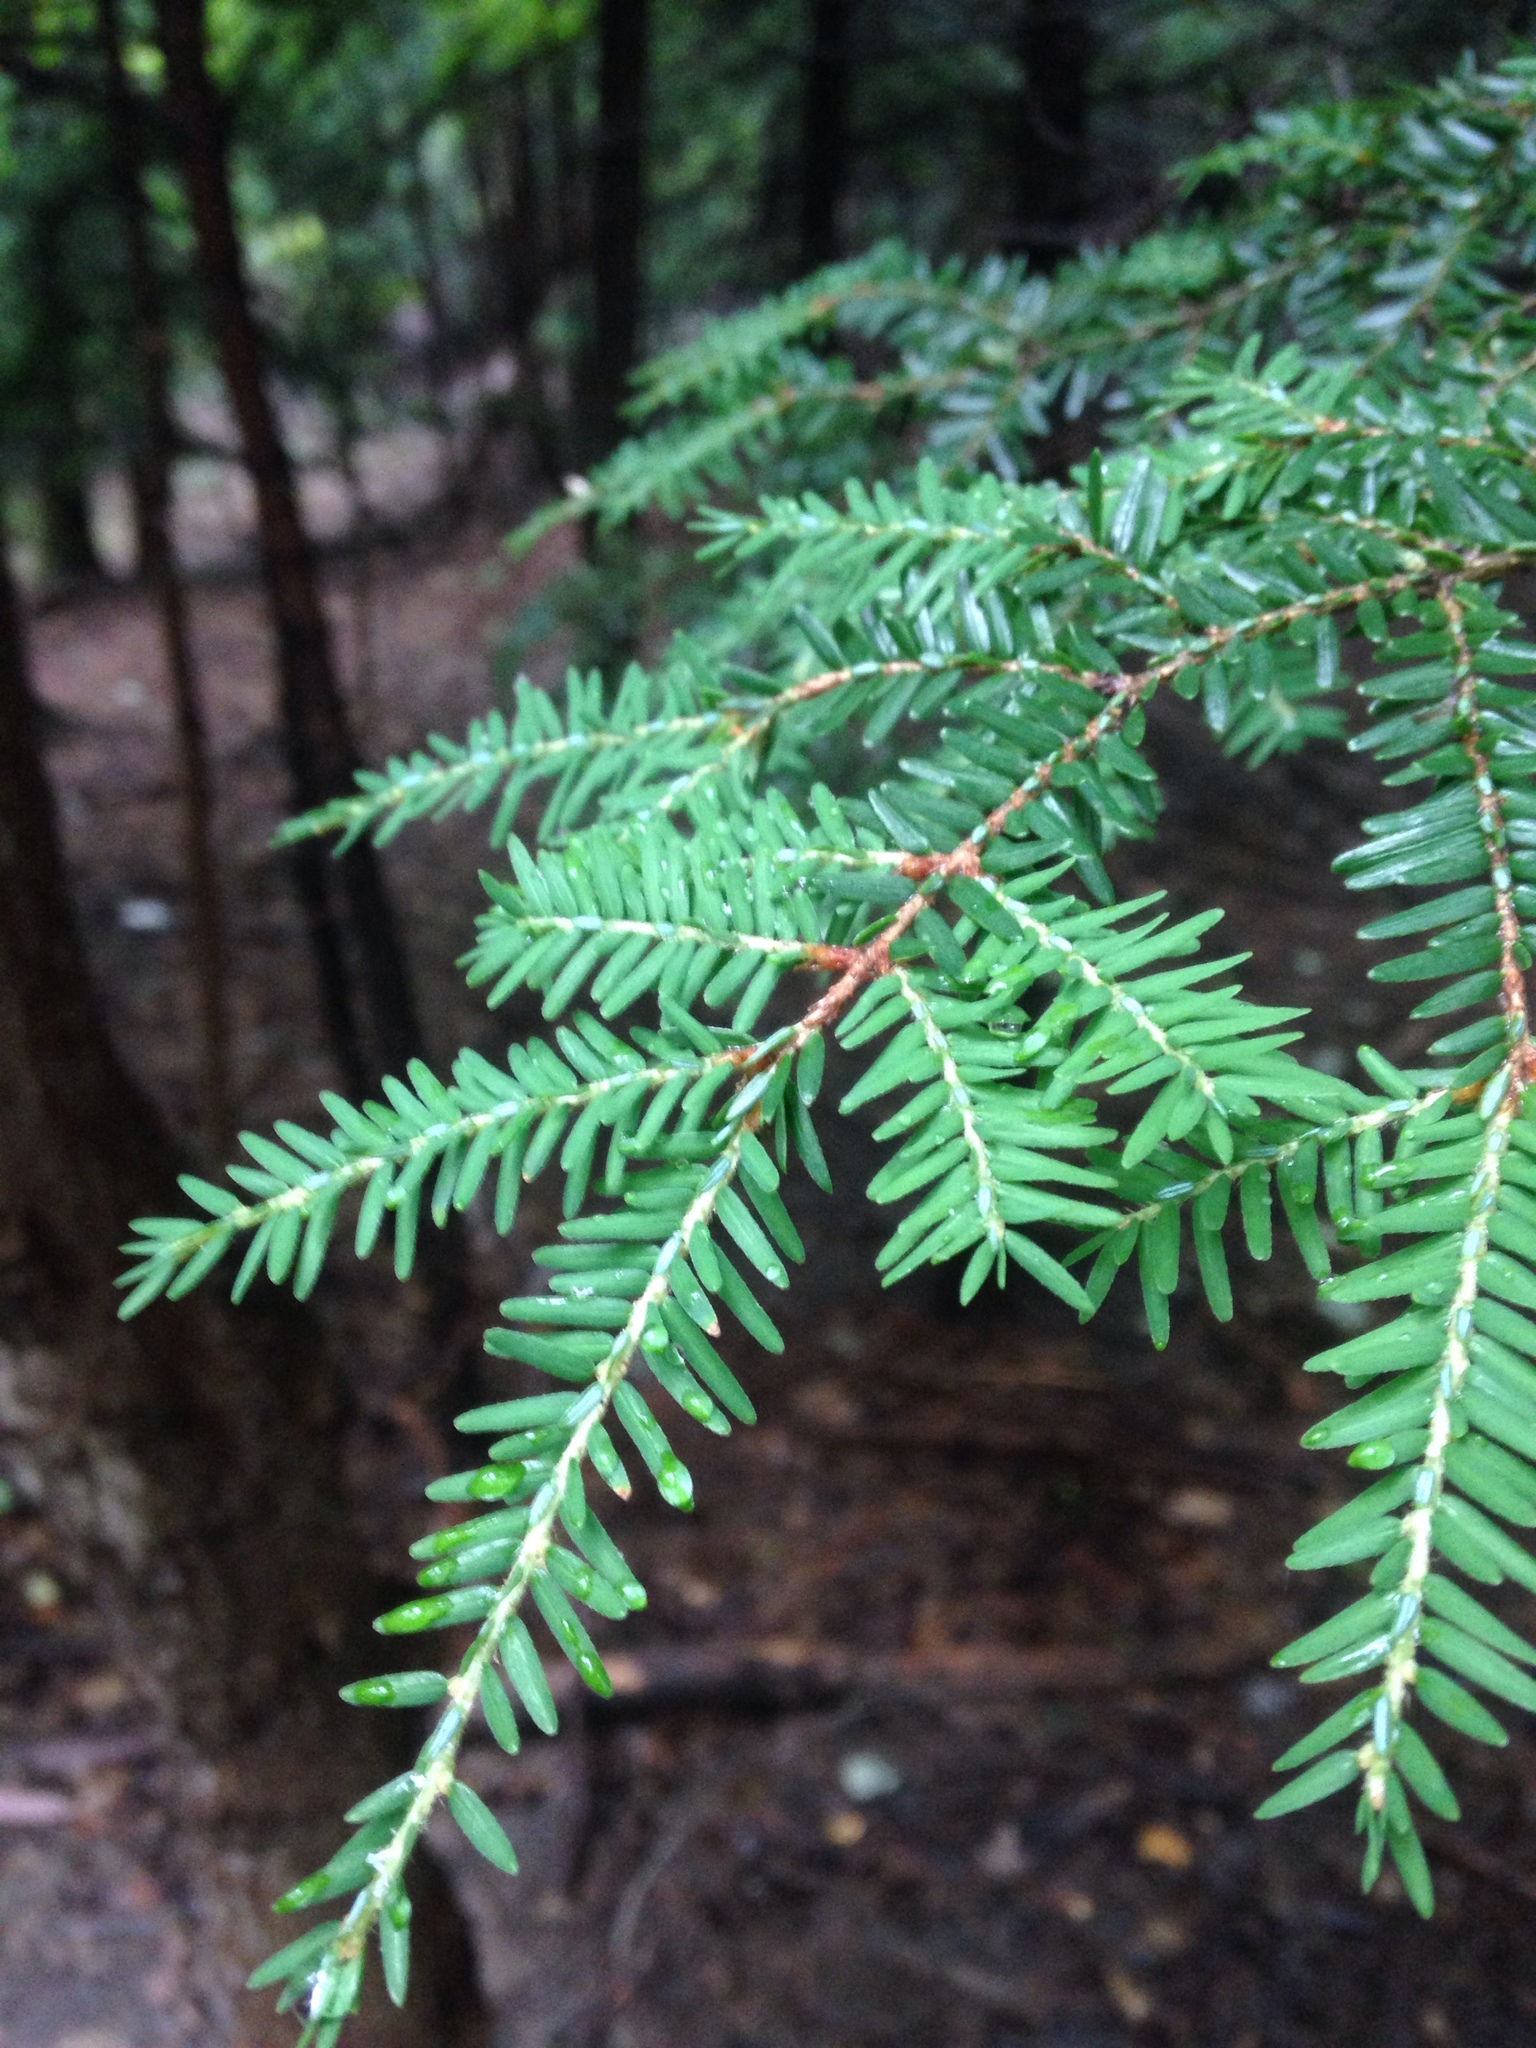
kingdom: Plantae
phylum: Tracheophyta
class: Pinopsida
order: Pinales
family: Pinaceae
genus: Tsuga
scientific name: Tsuga canadensis
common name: Eastern hemlock
